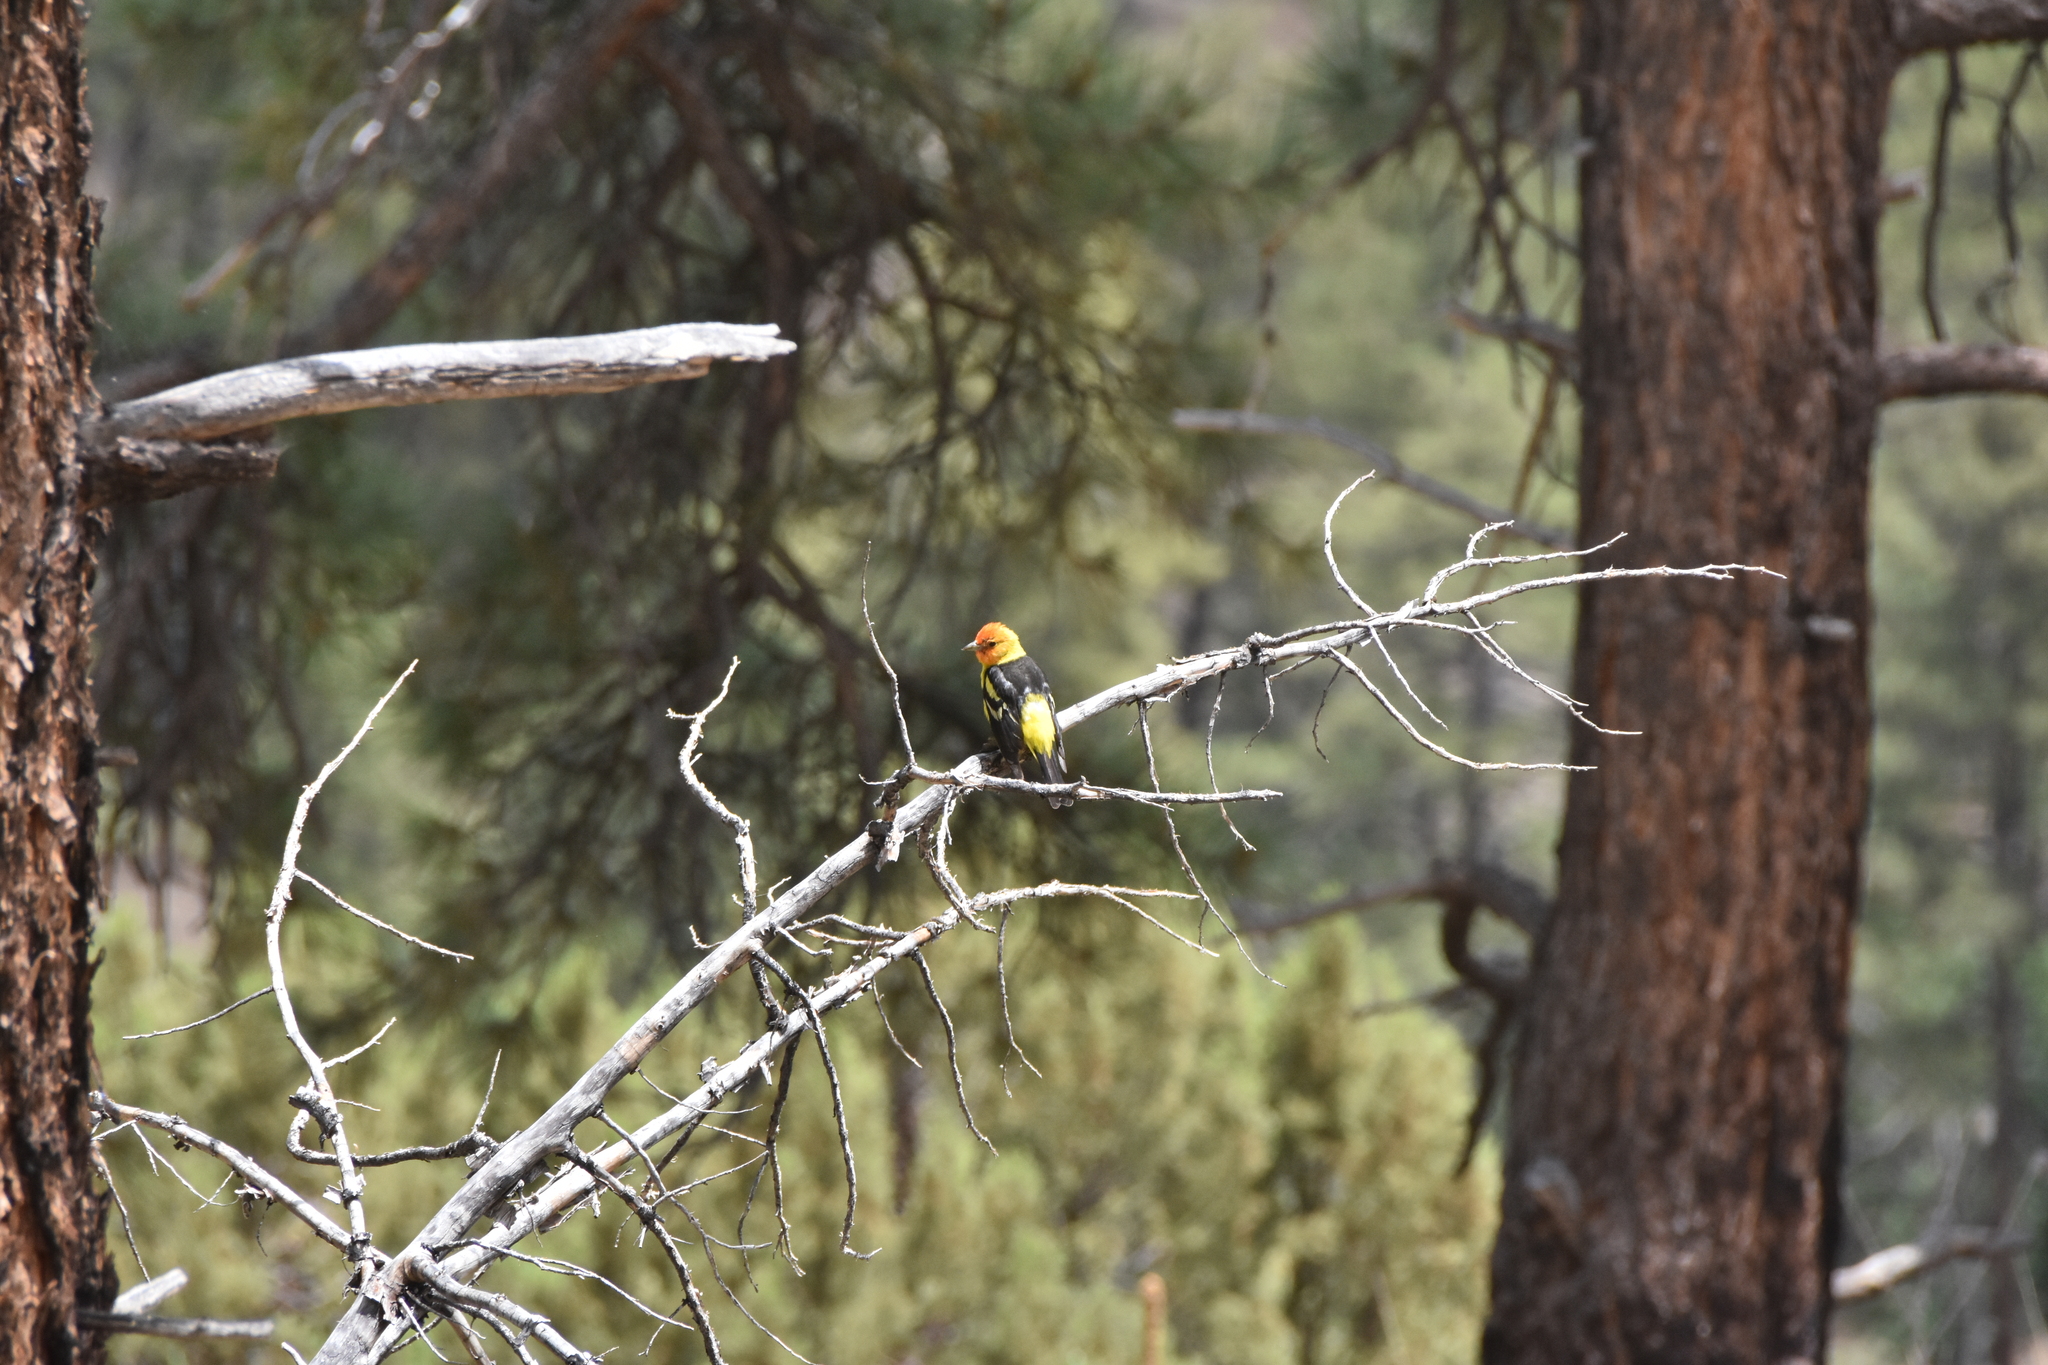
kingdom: Animalia
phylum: Chordata
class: Aves
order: Passeriformes
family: Cardinalidae
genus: Piranga
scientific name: Piranga ludoviciana
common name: Western tanager
